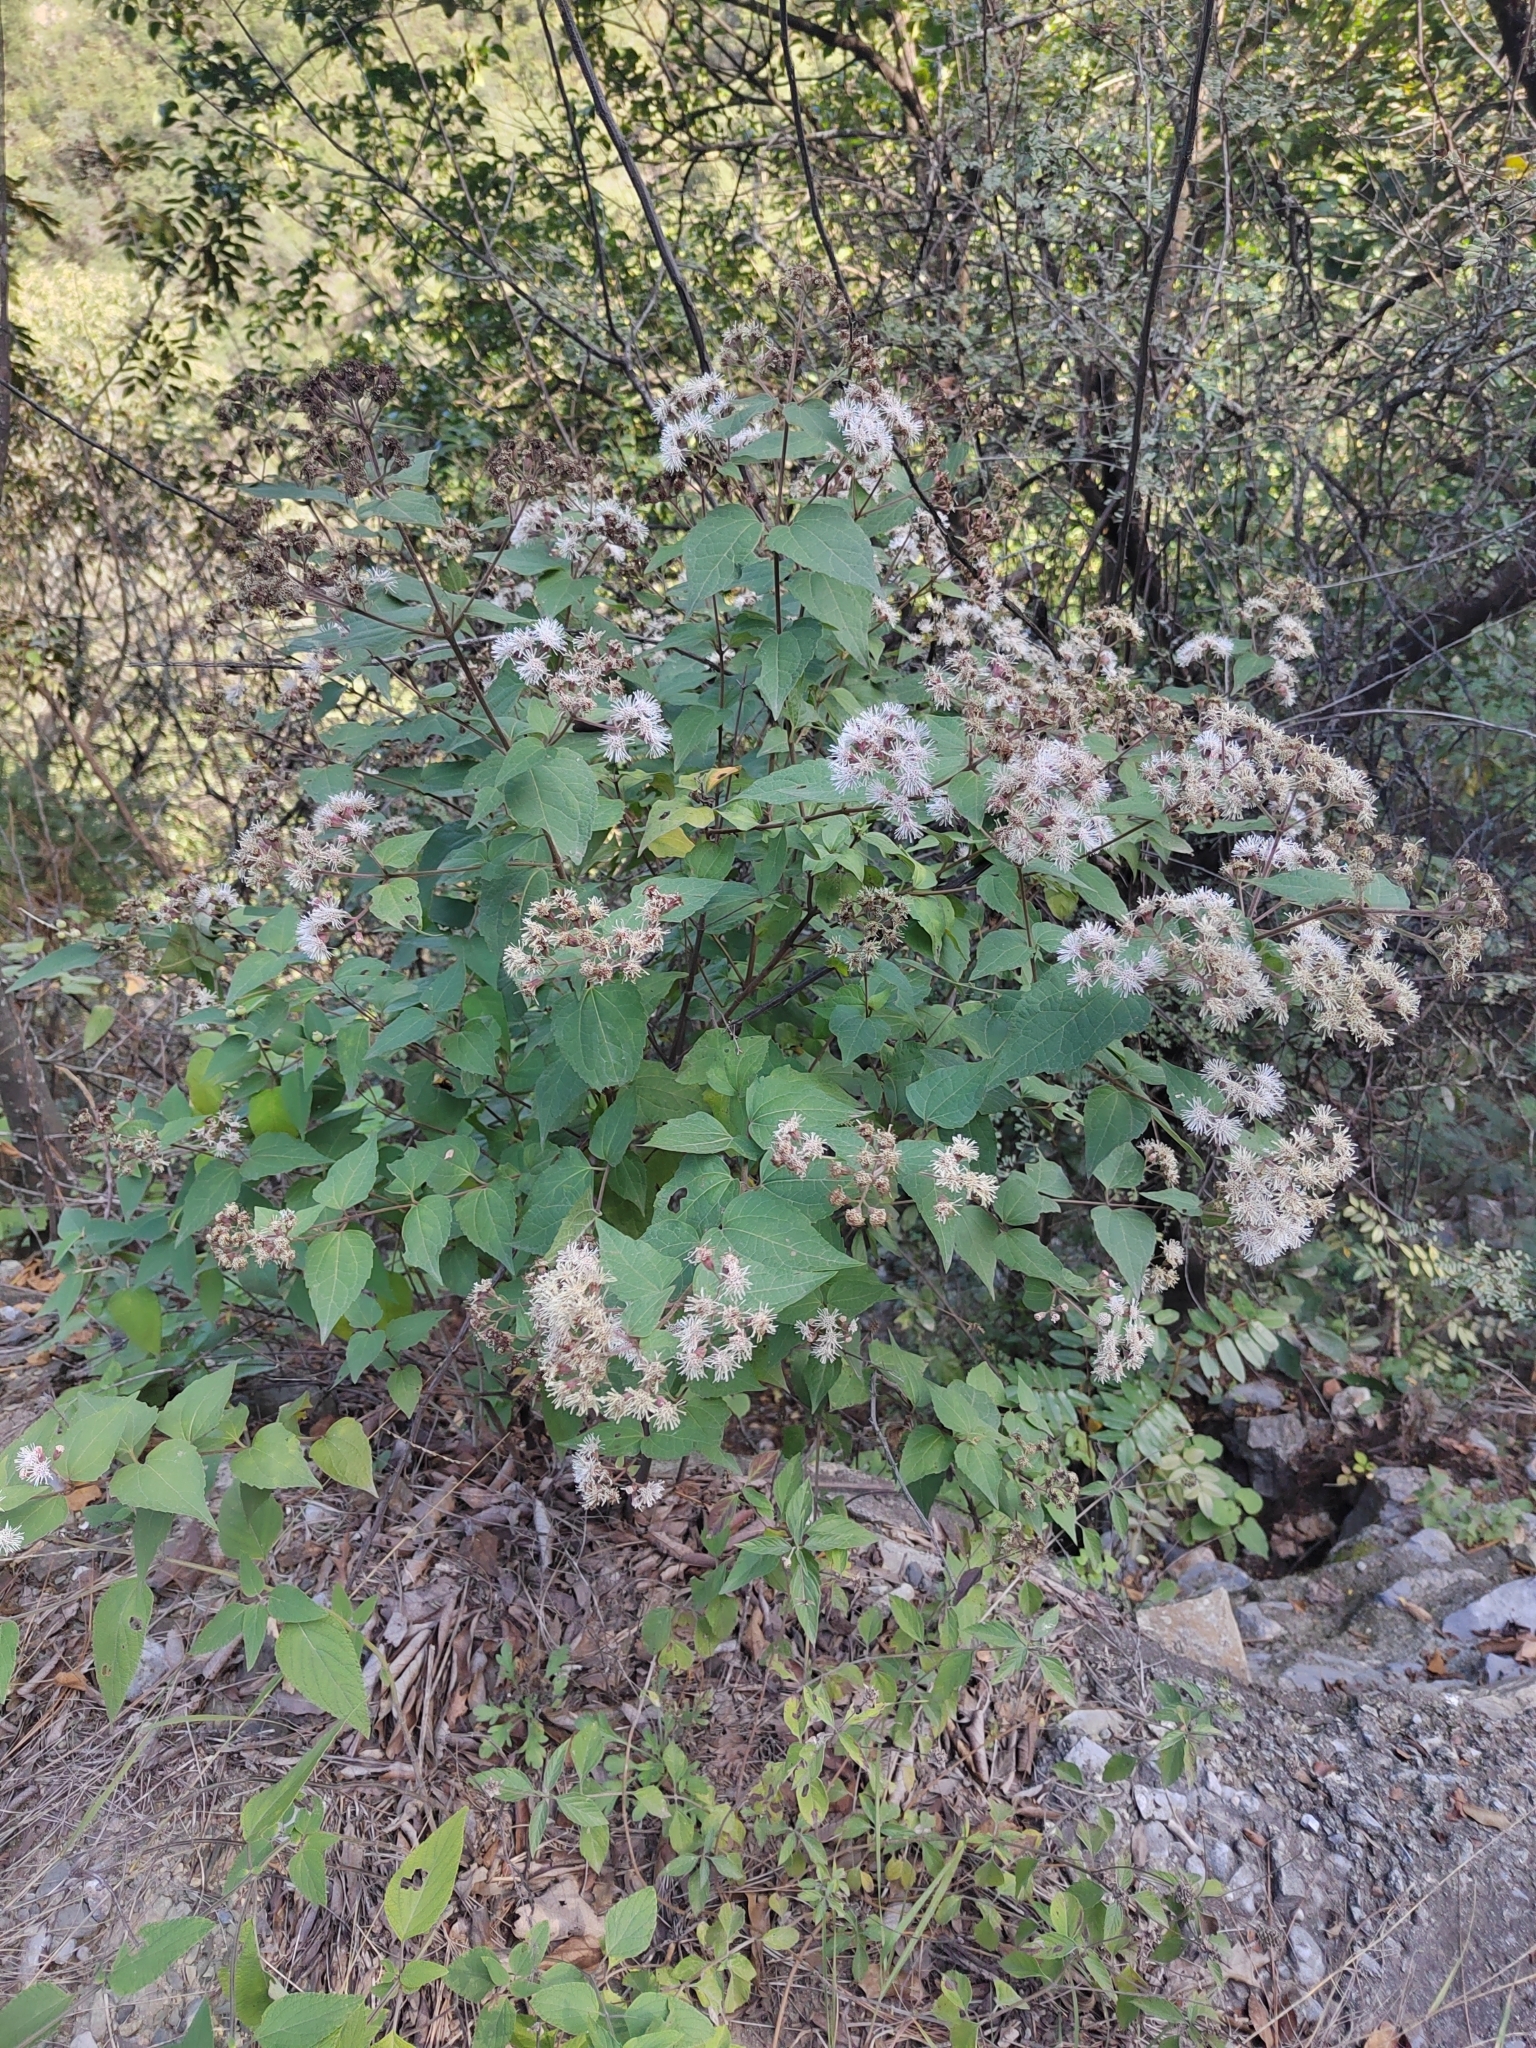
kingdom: Plantae
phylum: Tracheophyta
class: Magnoliopsida
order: Asterales
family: Asteraceae
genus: Koanophyllon
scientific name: Koanophyllon longifolia
